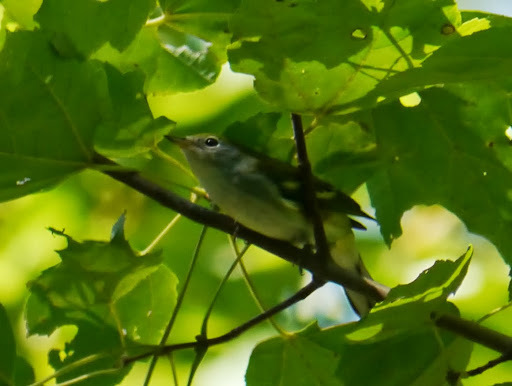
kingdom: Animalia
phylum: Chordata
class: Aves
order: Passeriformes
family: Parulidae
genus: Setophaga
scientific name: Setophaga pensylvanica
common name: Chestnut-sided warbler
